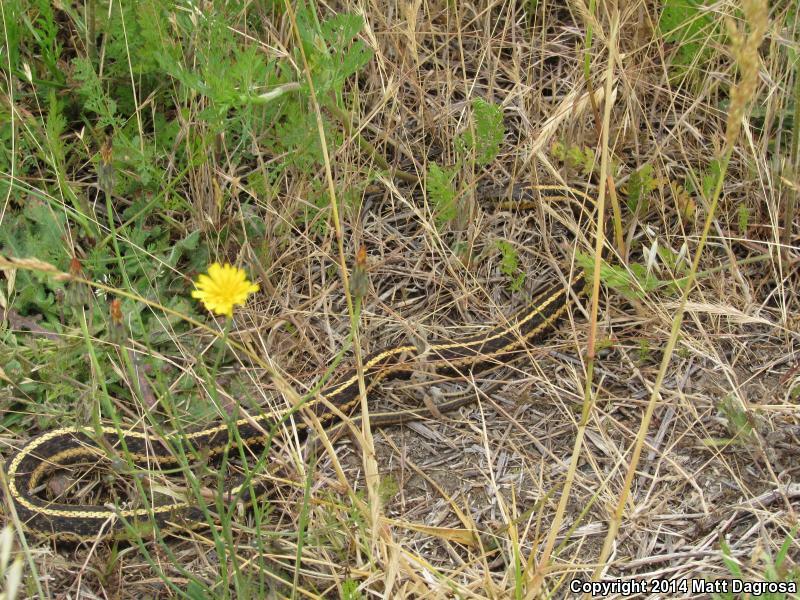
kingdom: Animalia
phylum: Chordata
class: Squamata
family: Colubridae
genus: Thamnophis
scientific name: Thamnophis ordinoides
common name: Northwestern garter snake
